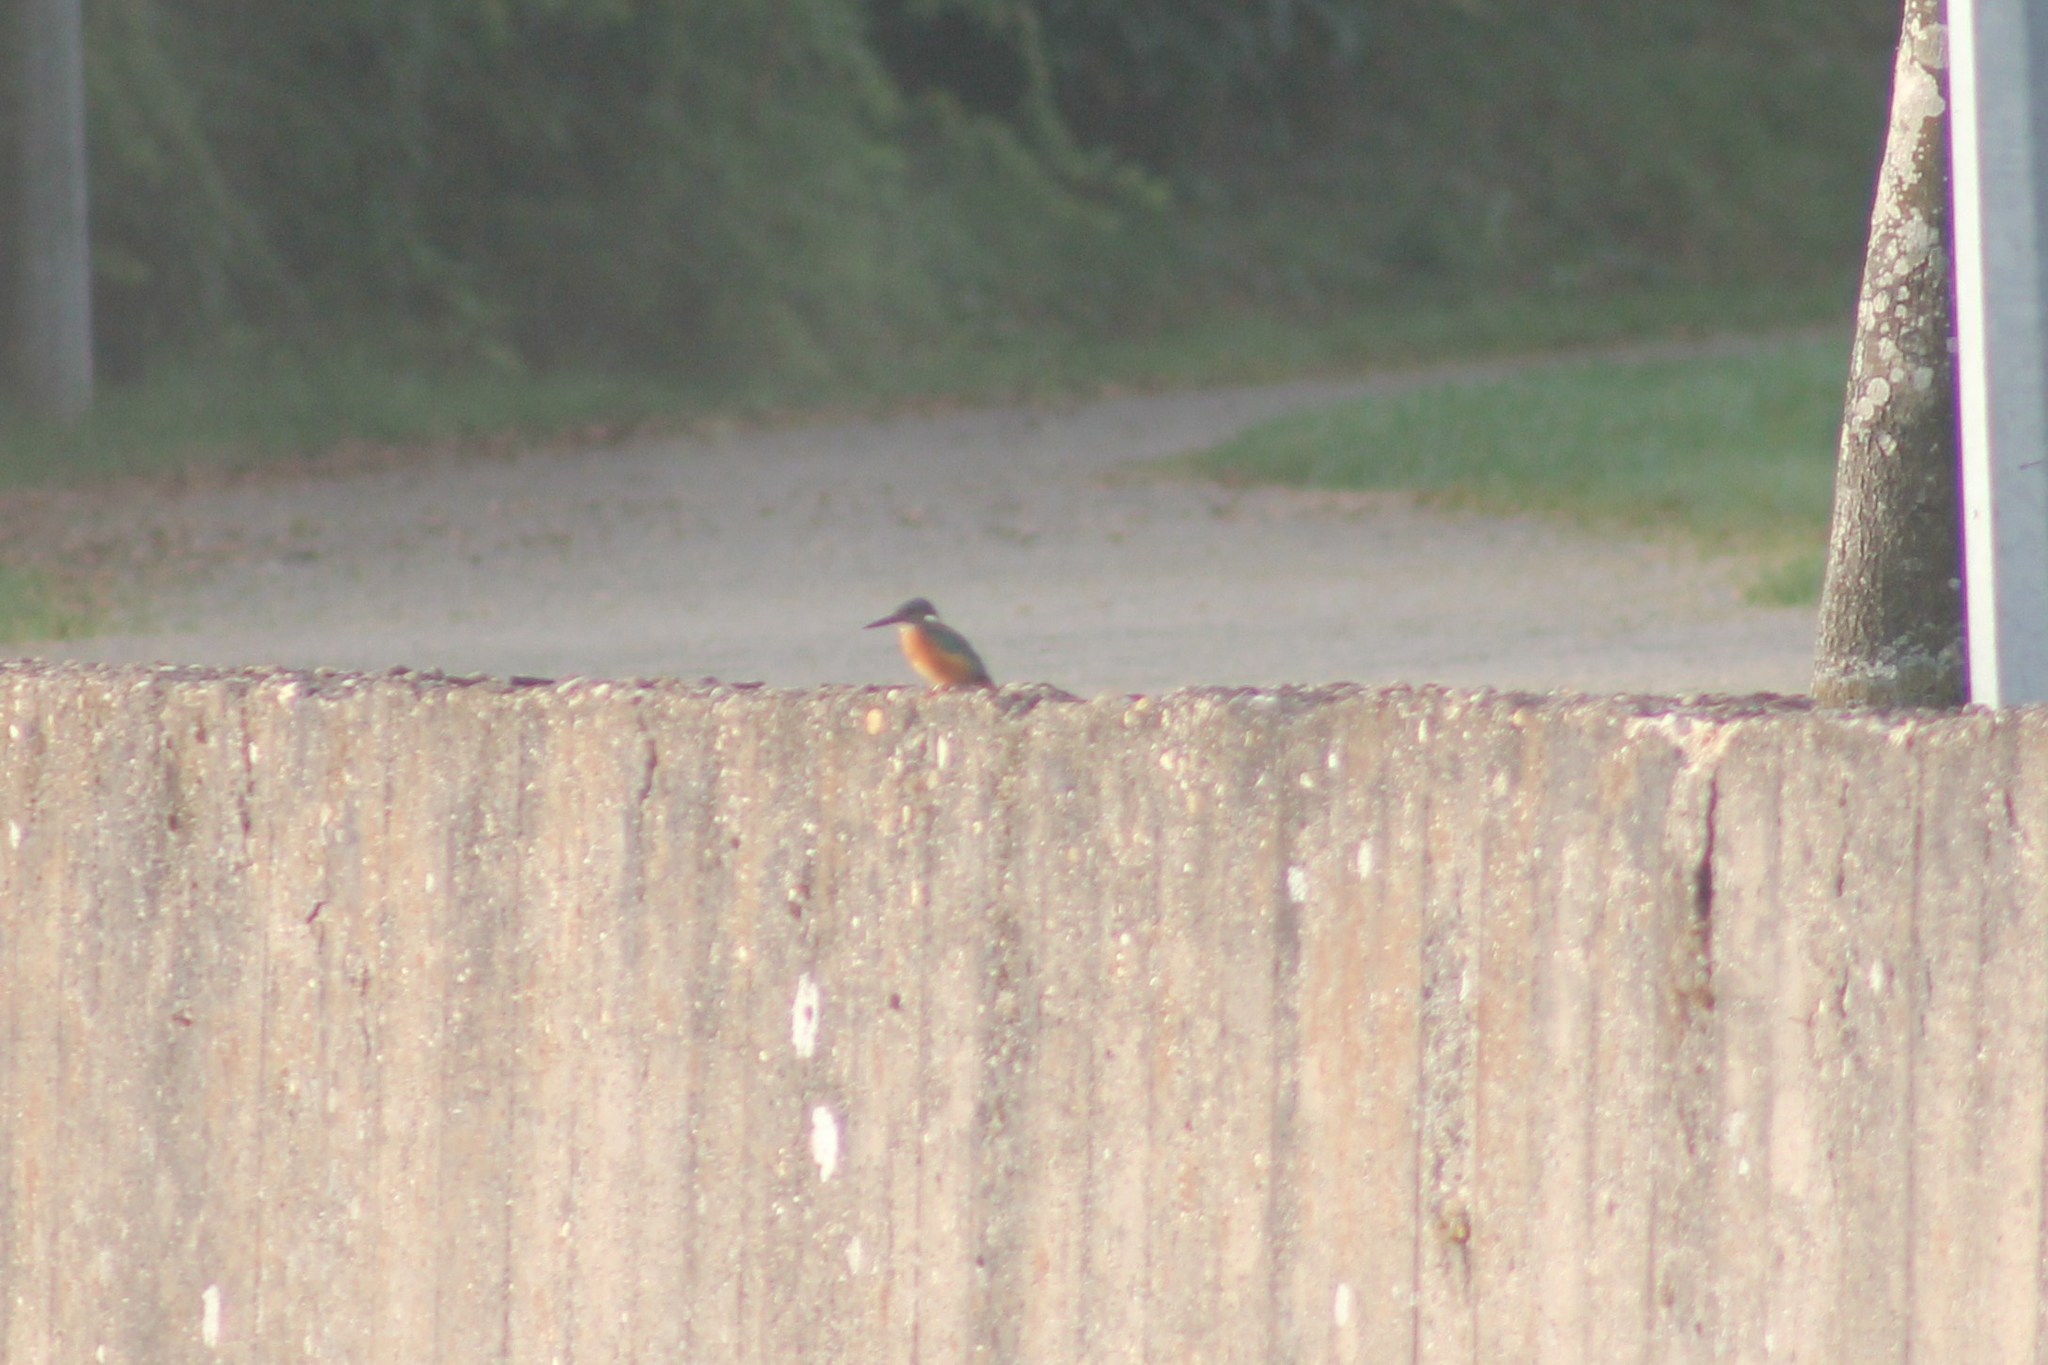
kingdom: Animalia
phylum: Chordata
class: Aves
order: Coraciiformes
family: Alcedinidae
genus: Alcedo
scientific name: Alcedo atthis
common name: Common kingfisher
